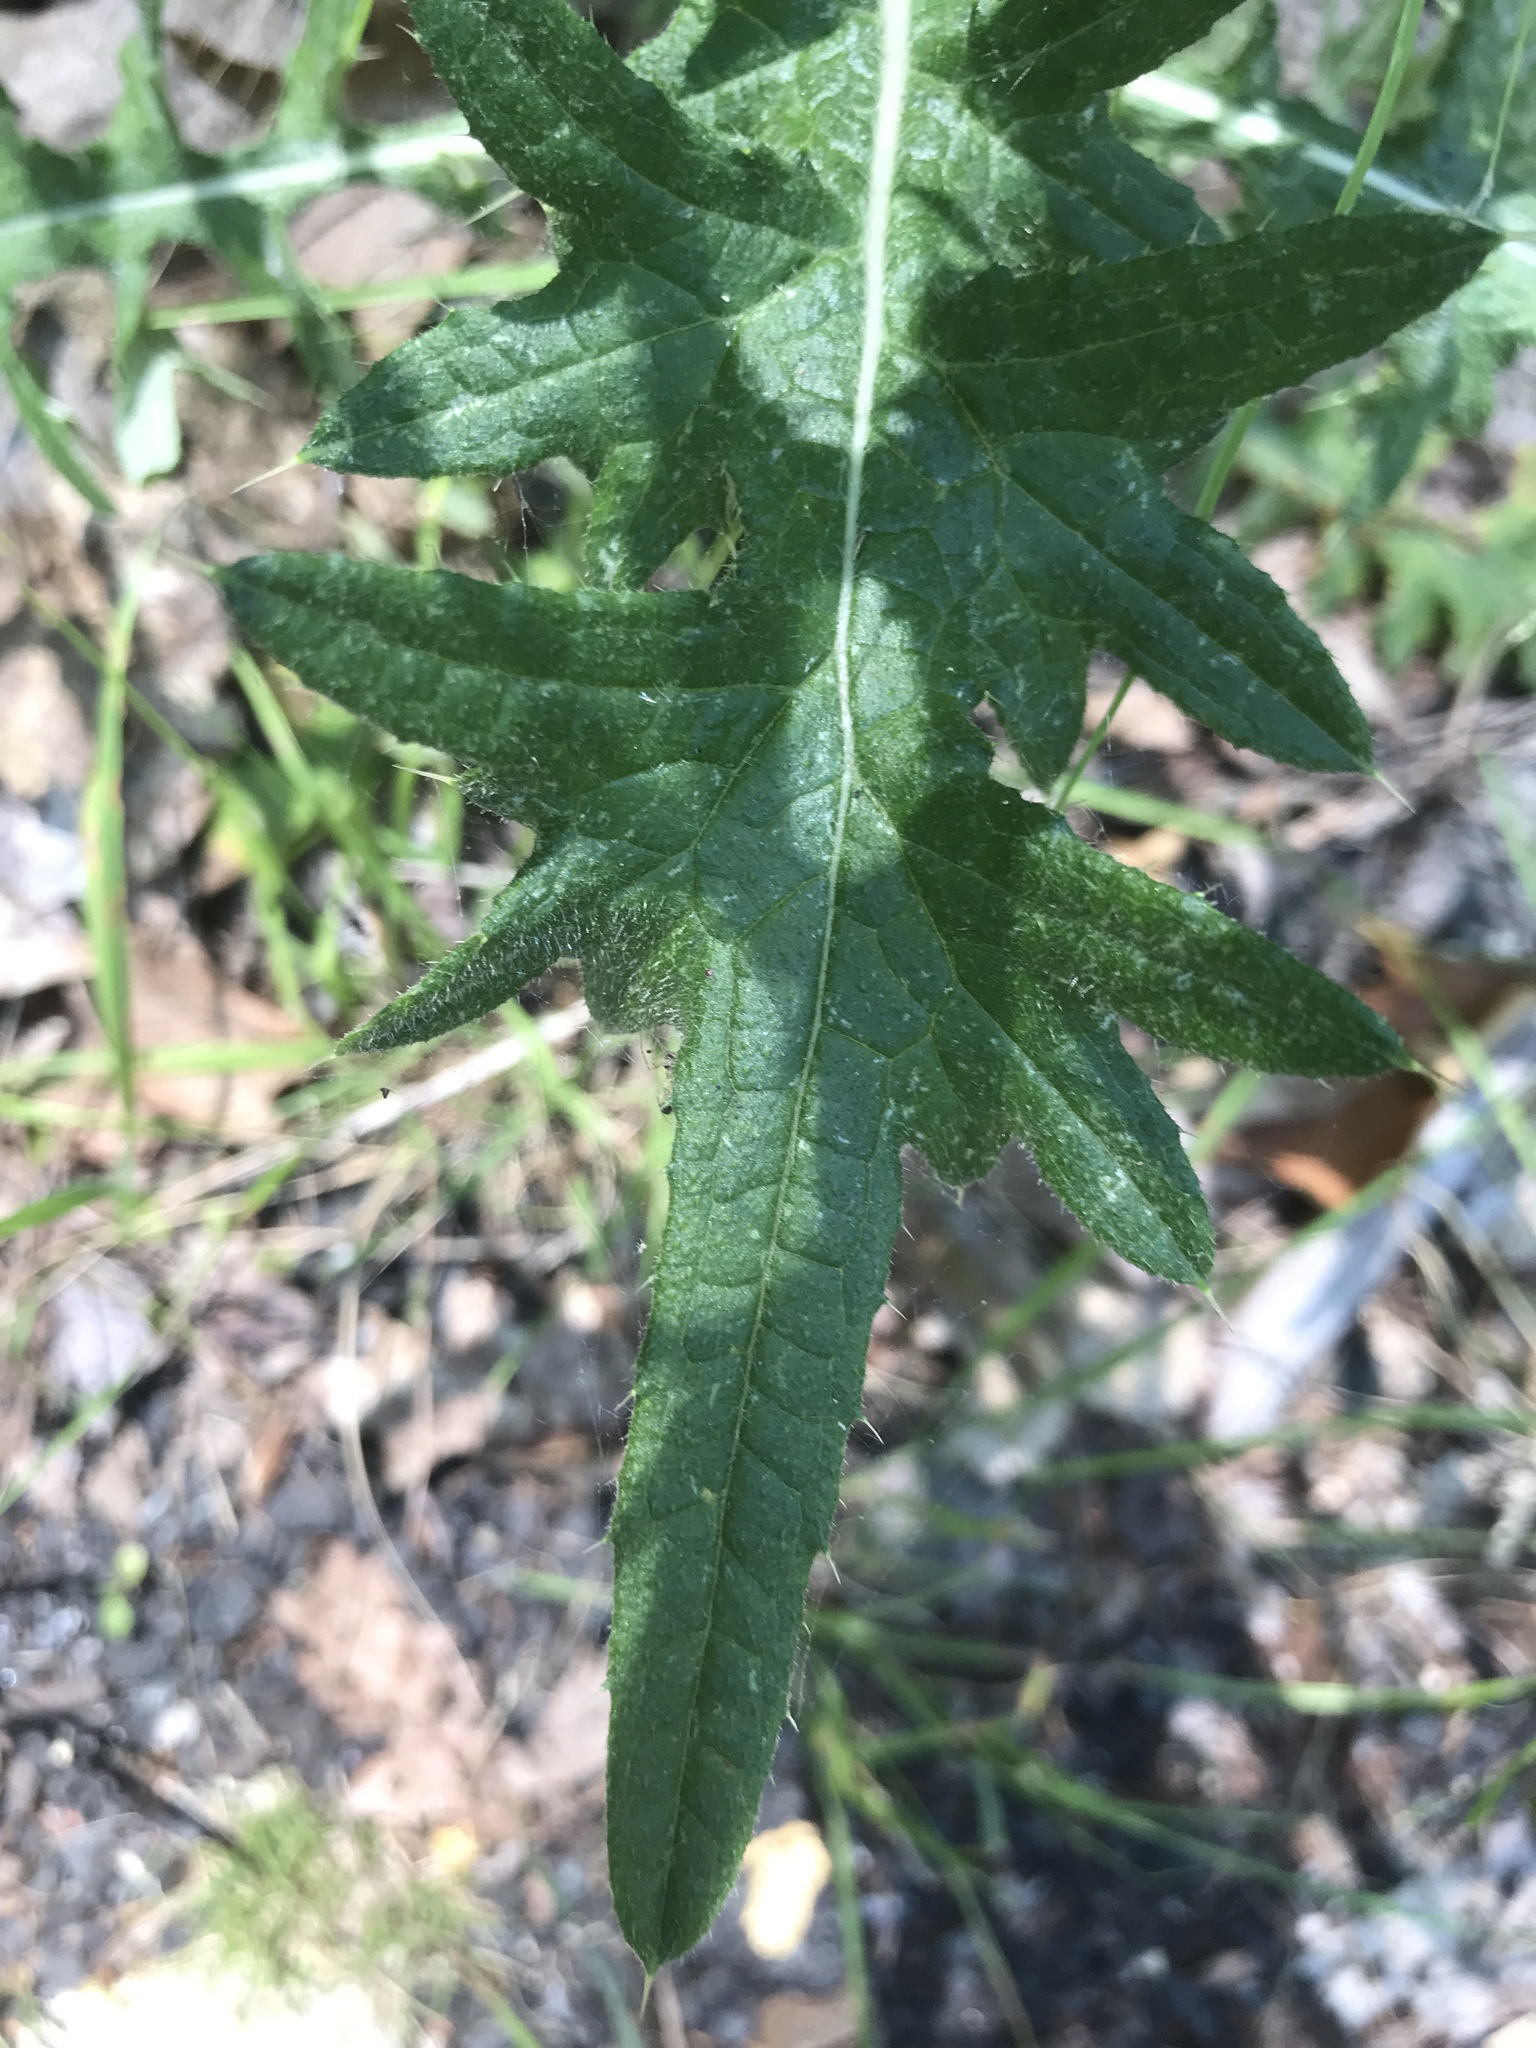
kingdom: Plantae
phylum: Tracheophyta
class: Magnoliopsida
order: Asterales
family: Asteraceae
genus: Cirsium
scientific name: Cirsium vulgare
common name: Bull thistle
